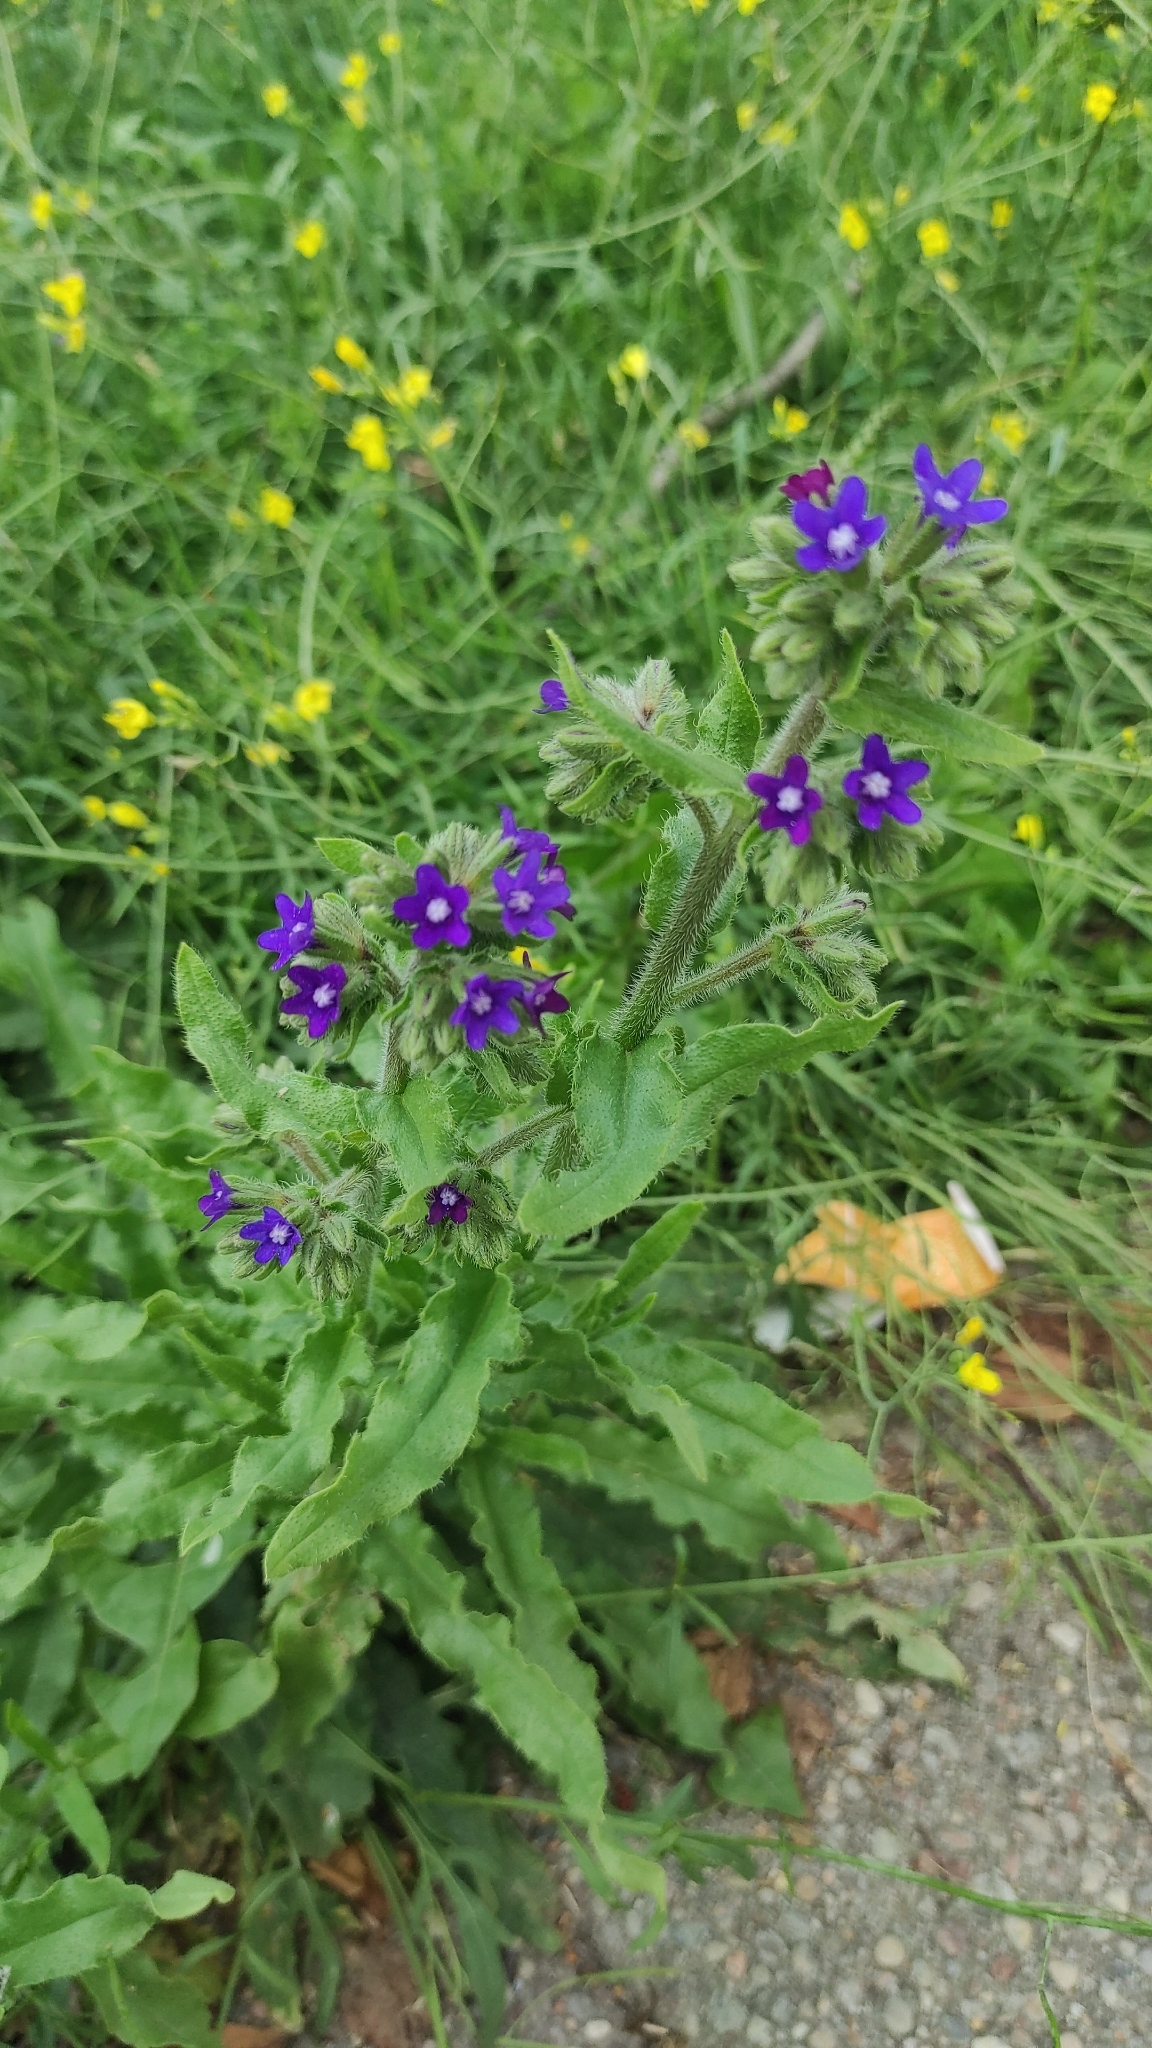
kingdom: Plantae
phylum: Tracheophyta
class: Magnoliopsida
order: Boraginales
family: Boraginaceae
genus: Anchusa
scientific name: Anchusa officinalis
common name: Alkanet
